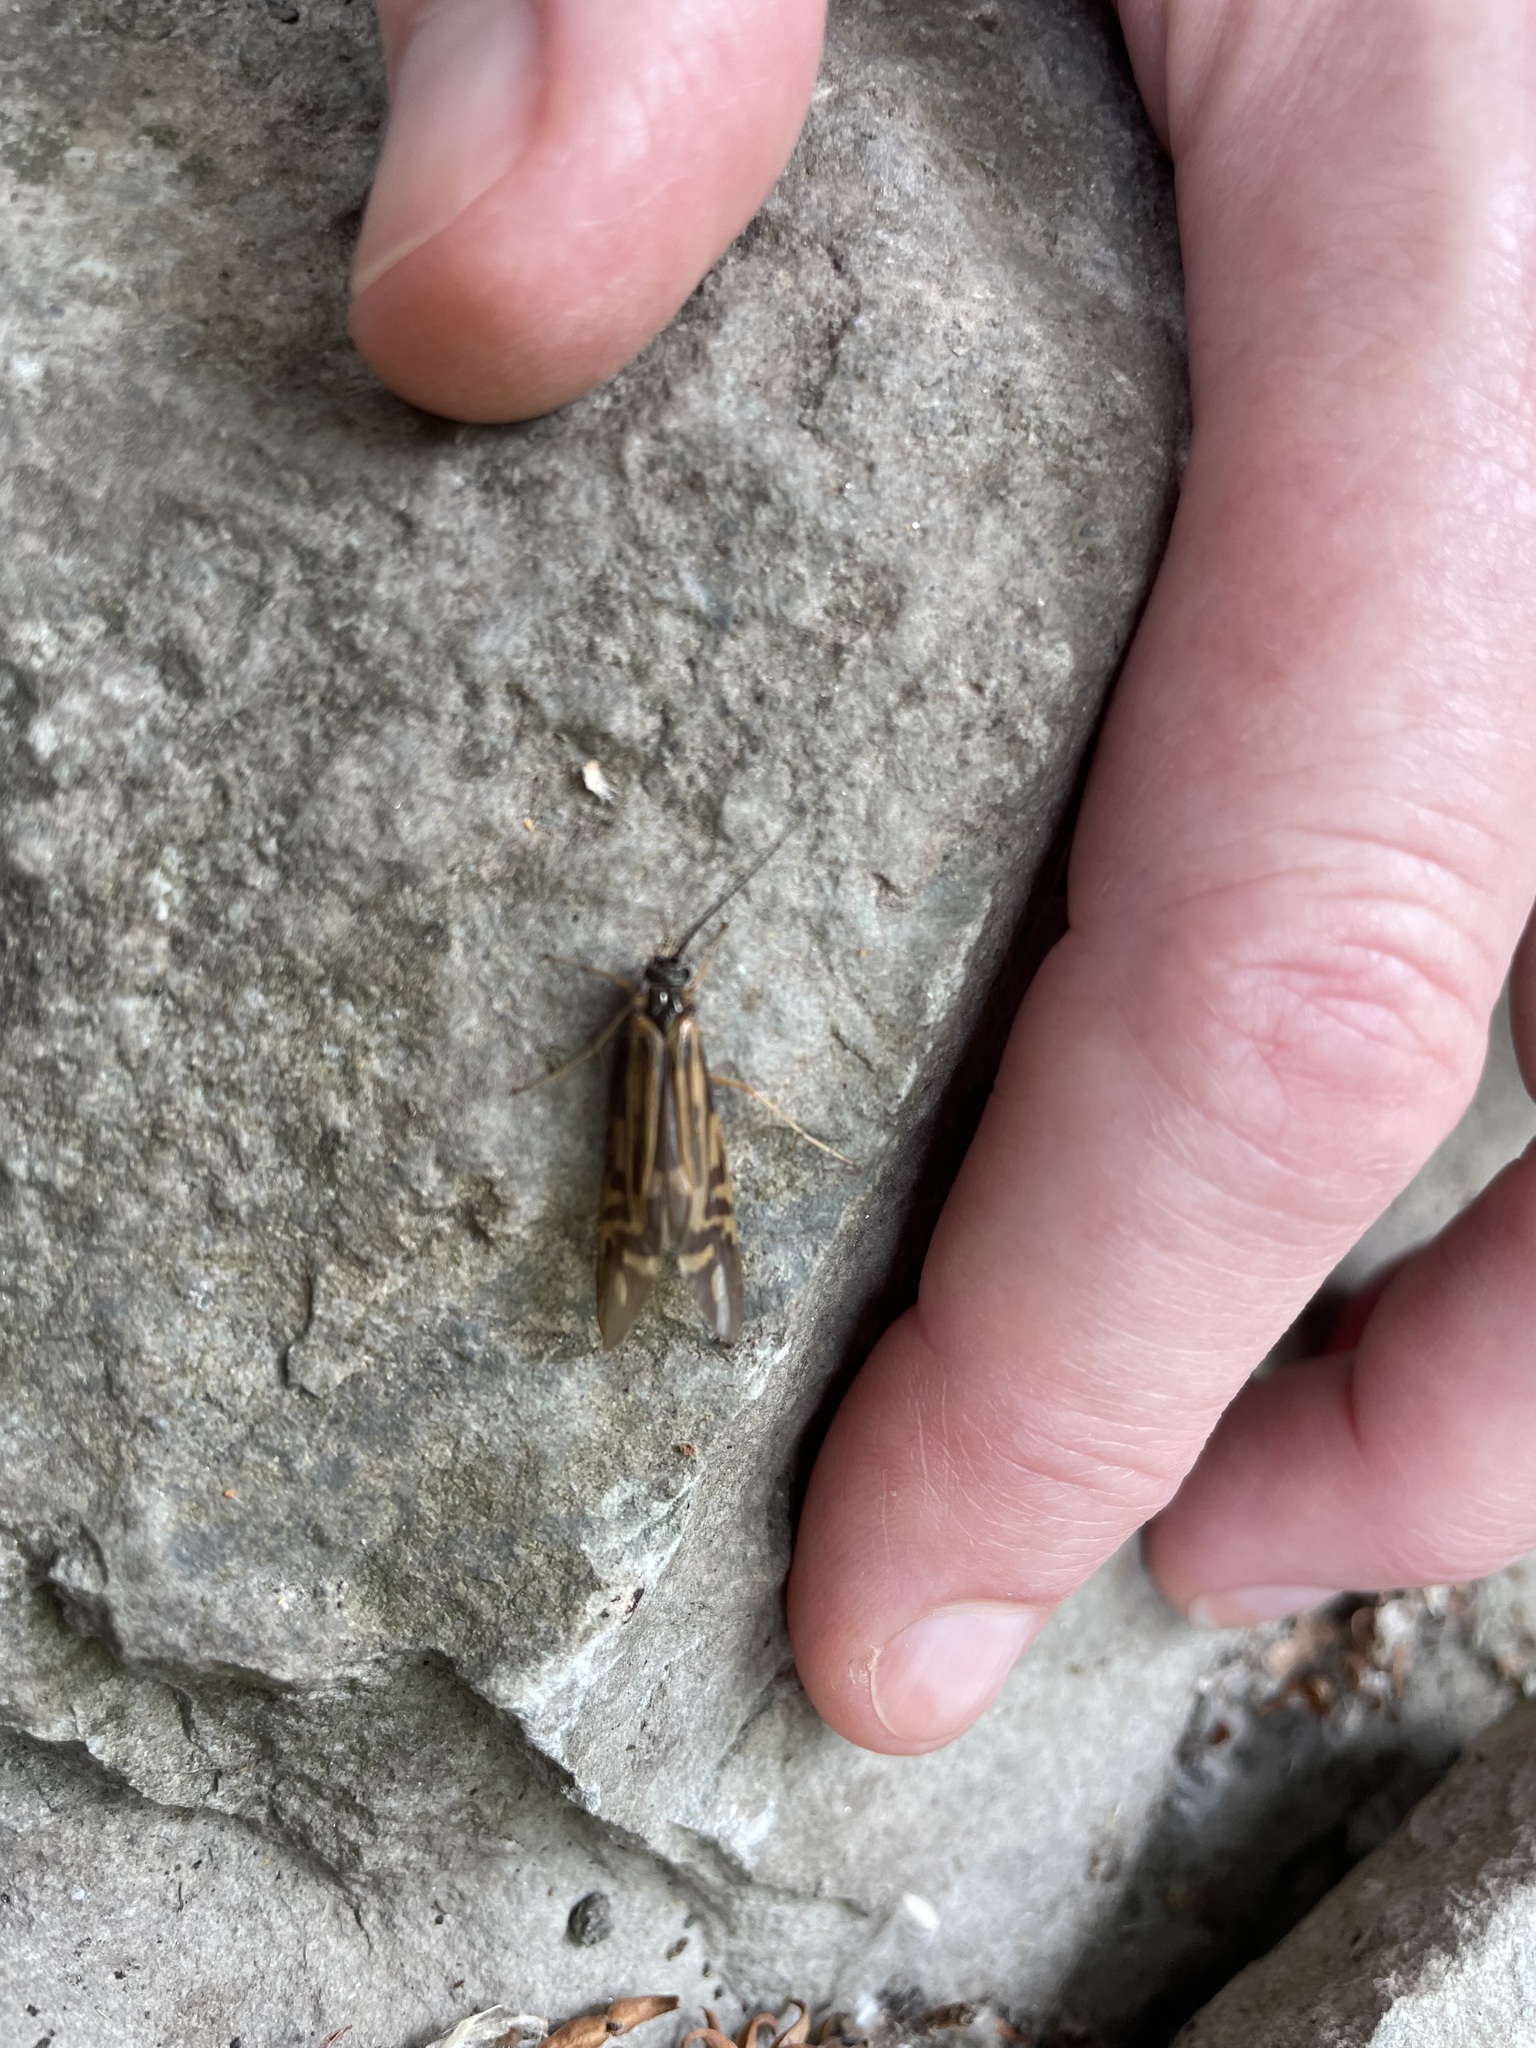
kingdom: Animalia
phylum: Arthropoda
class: Insecta
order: Trichoptera
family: Hydropsychidae
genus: Macrostemum
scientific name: Macrostemum zebratum
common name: Zebra caddisfly
